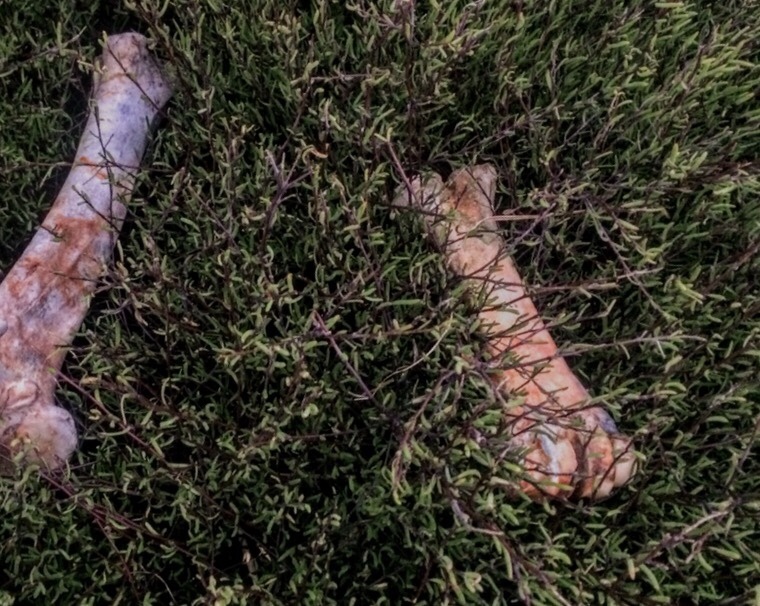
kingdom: Animalia
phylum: Chordata
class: Mammalia
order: Artiodactyla
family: Bovidae
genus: Bos
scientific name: Bos taurus
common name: Domesticated cattle
